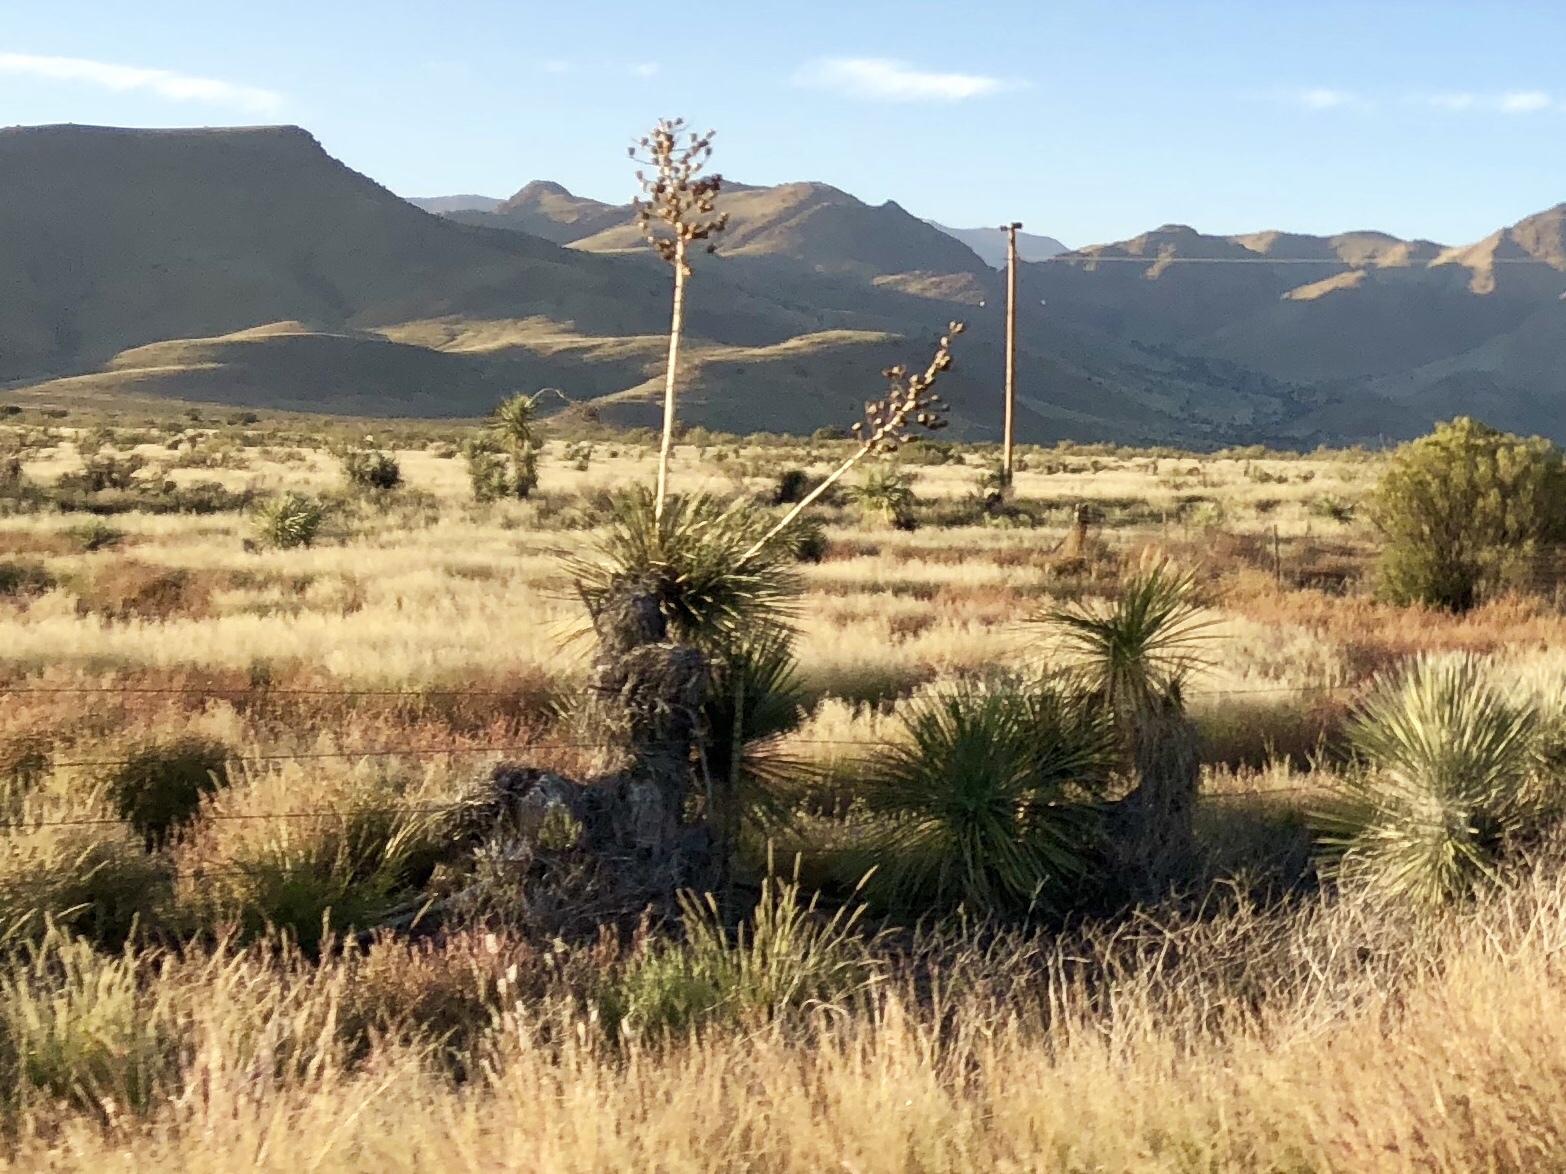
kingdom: Plantae
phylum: Tracheophyta
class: Liliopsida
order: Asparagales
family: Asparagaceae
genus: Yucca
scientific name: Yucca elata
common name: Palmella
